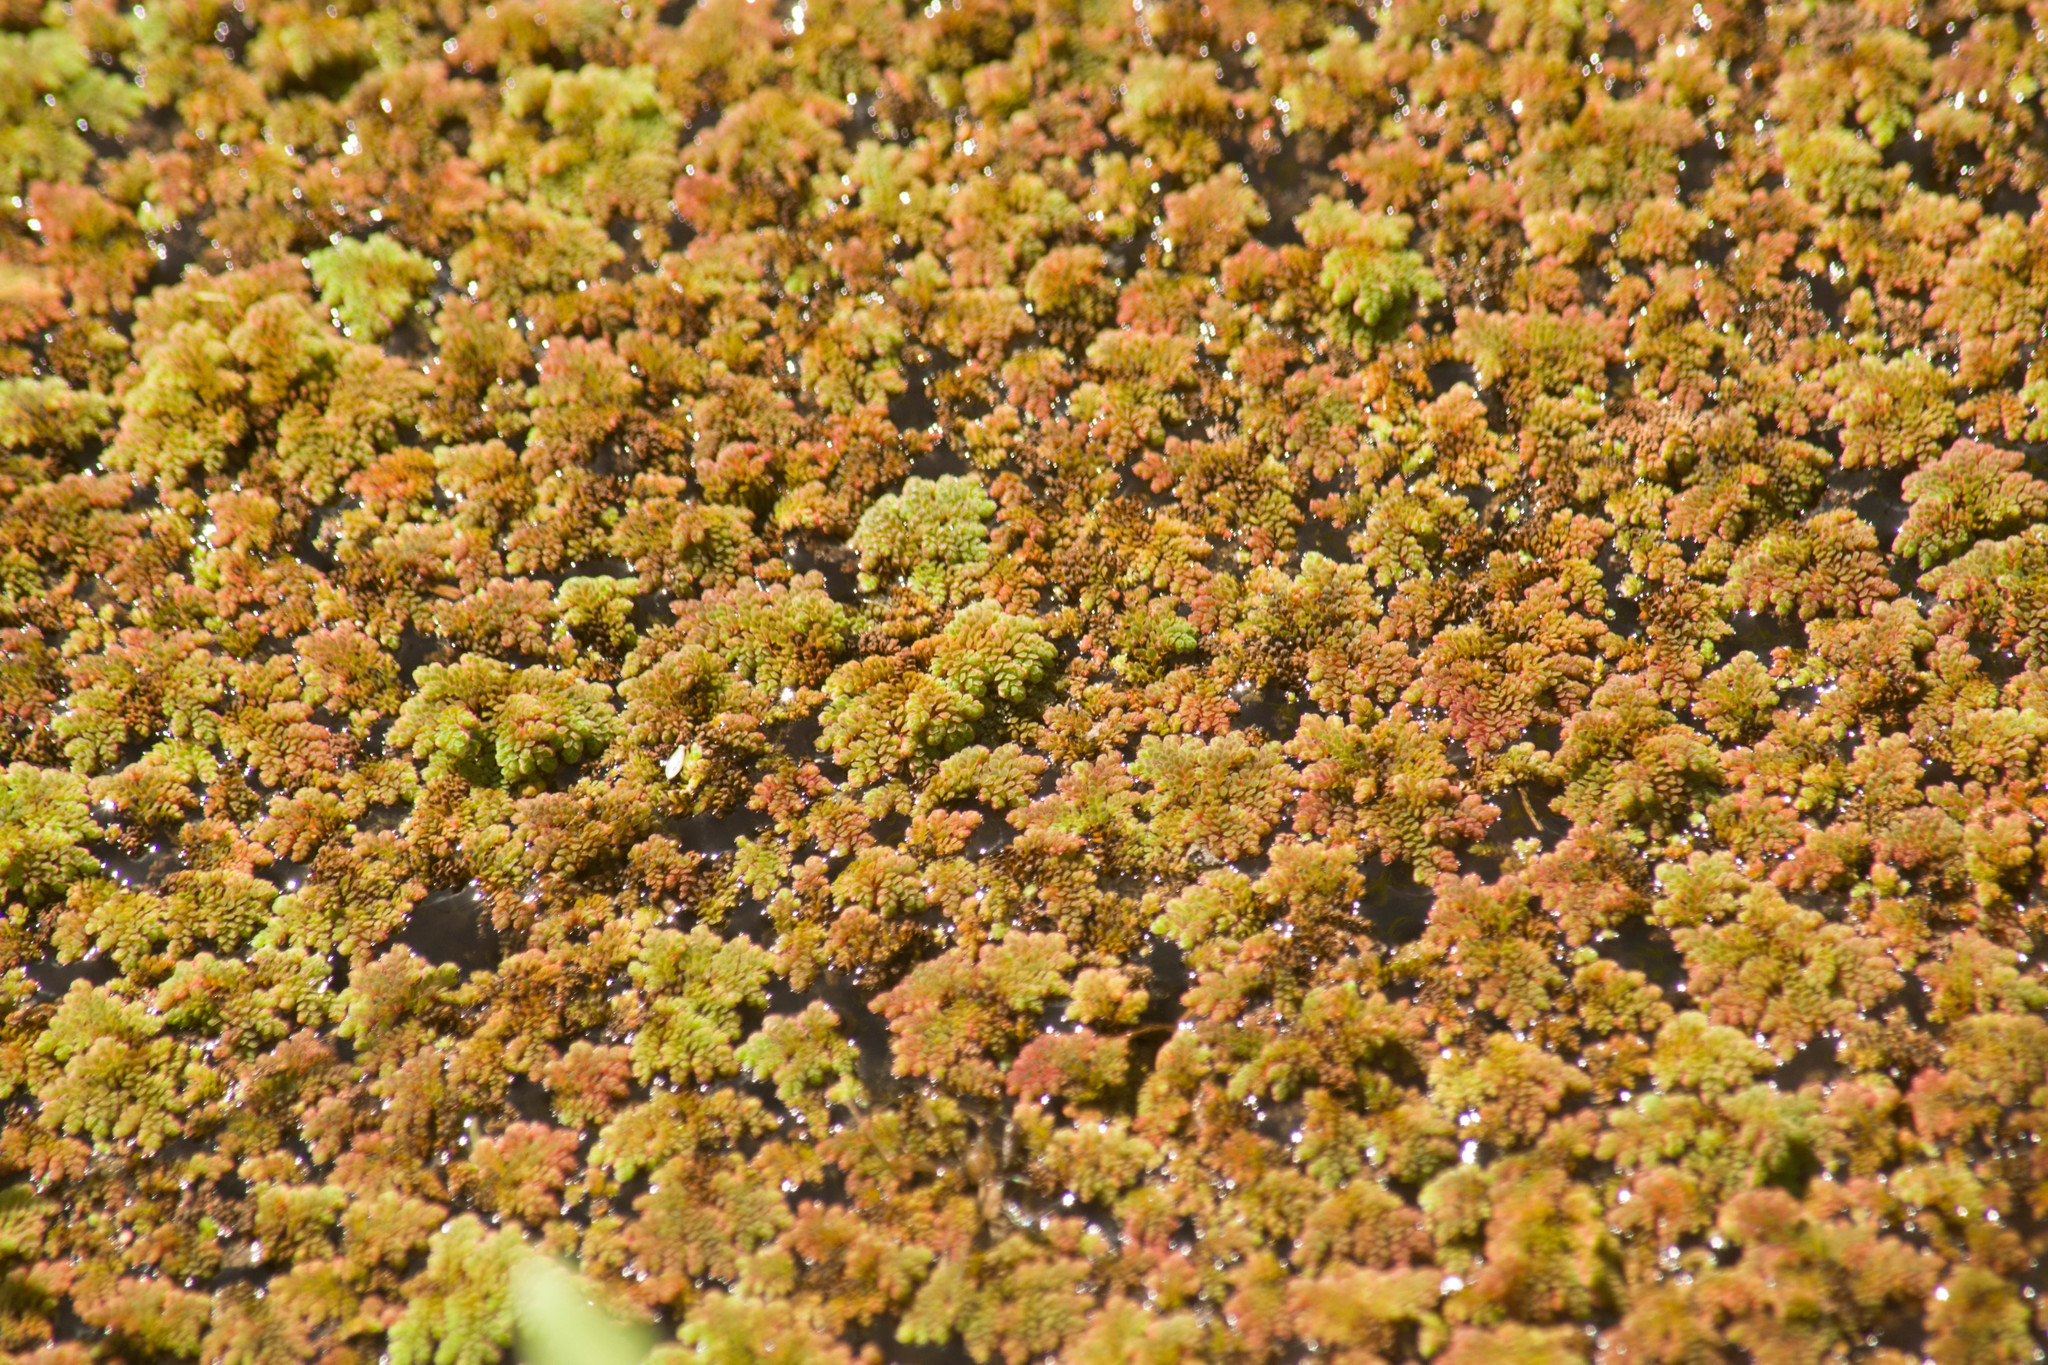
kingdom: Plantae
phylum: Tracheophyta
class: Polypodiopsida
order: Salviniales
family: Salviniaceae
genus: Azolla
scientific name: Azolla filiculoides
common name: Water fern
